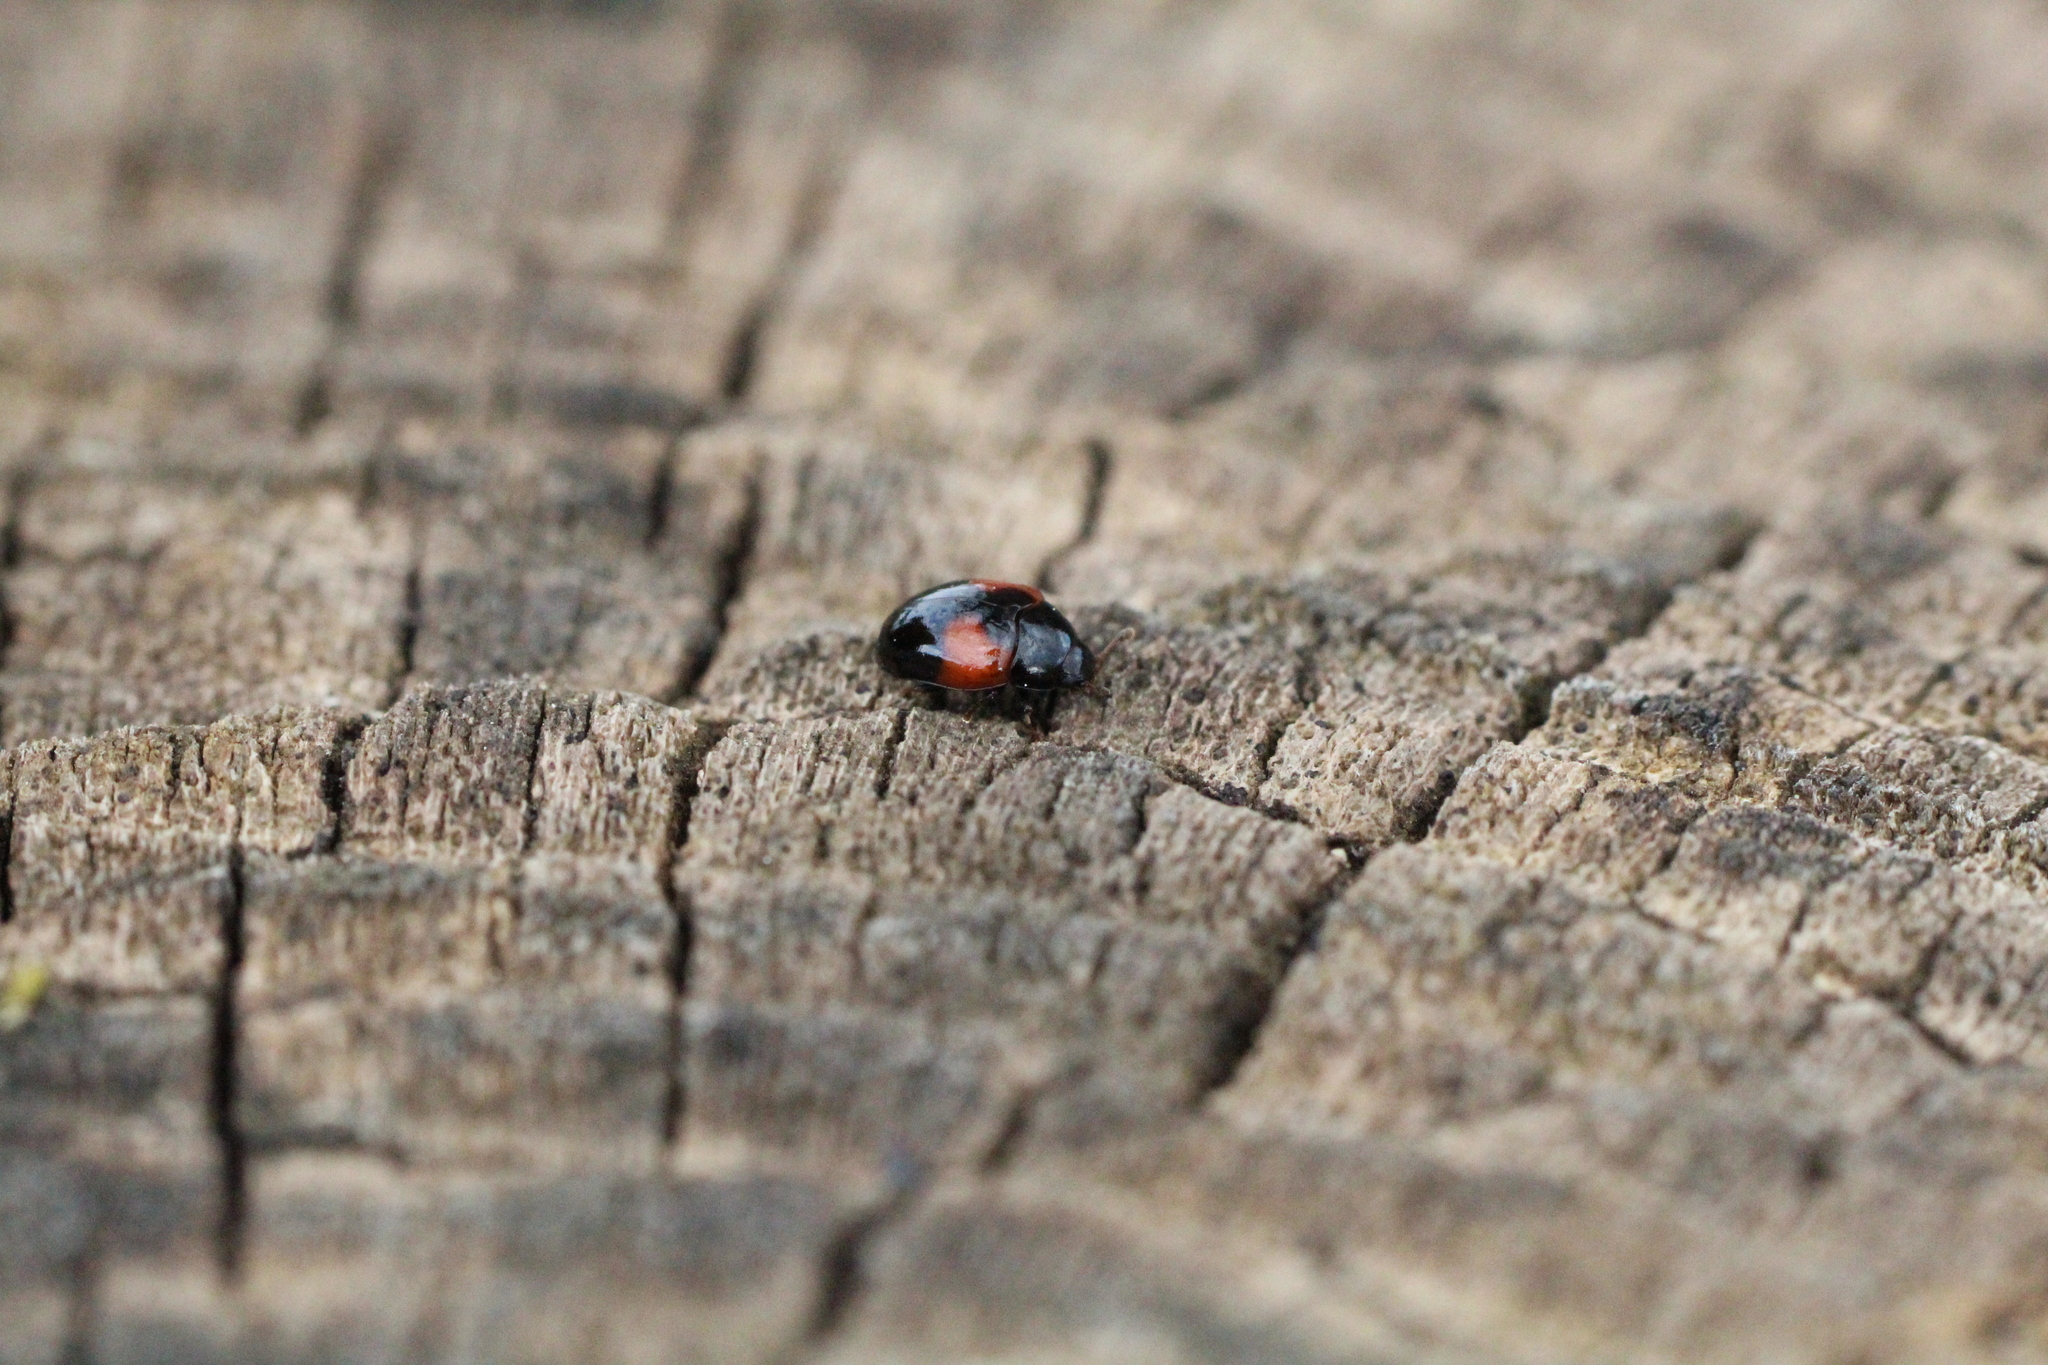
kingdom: Animalia
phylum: Arthropoda
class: Insecta
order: Coleoptera
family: Erotylidae
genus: Tritoma
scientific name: Tritoma bipustulata
